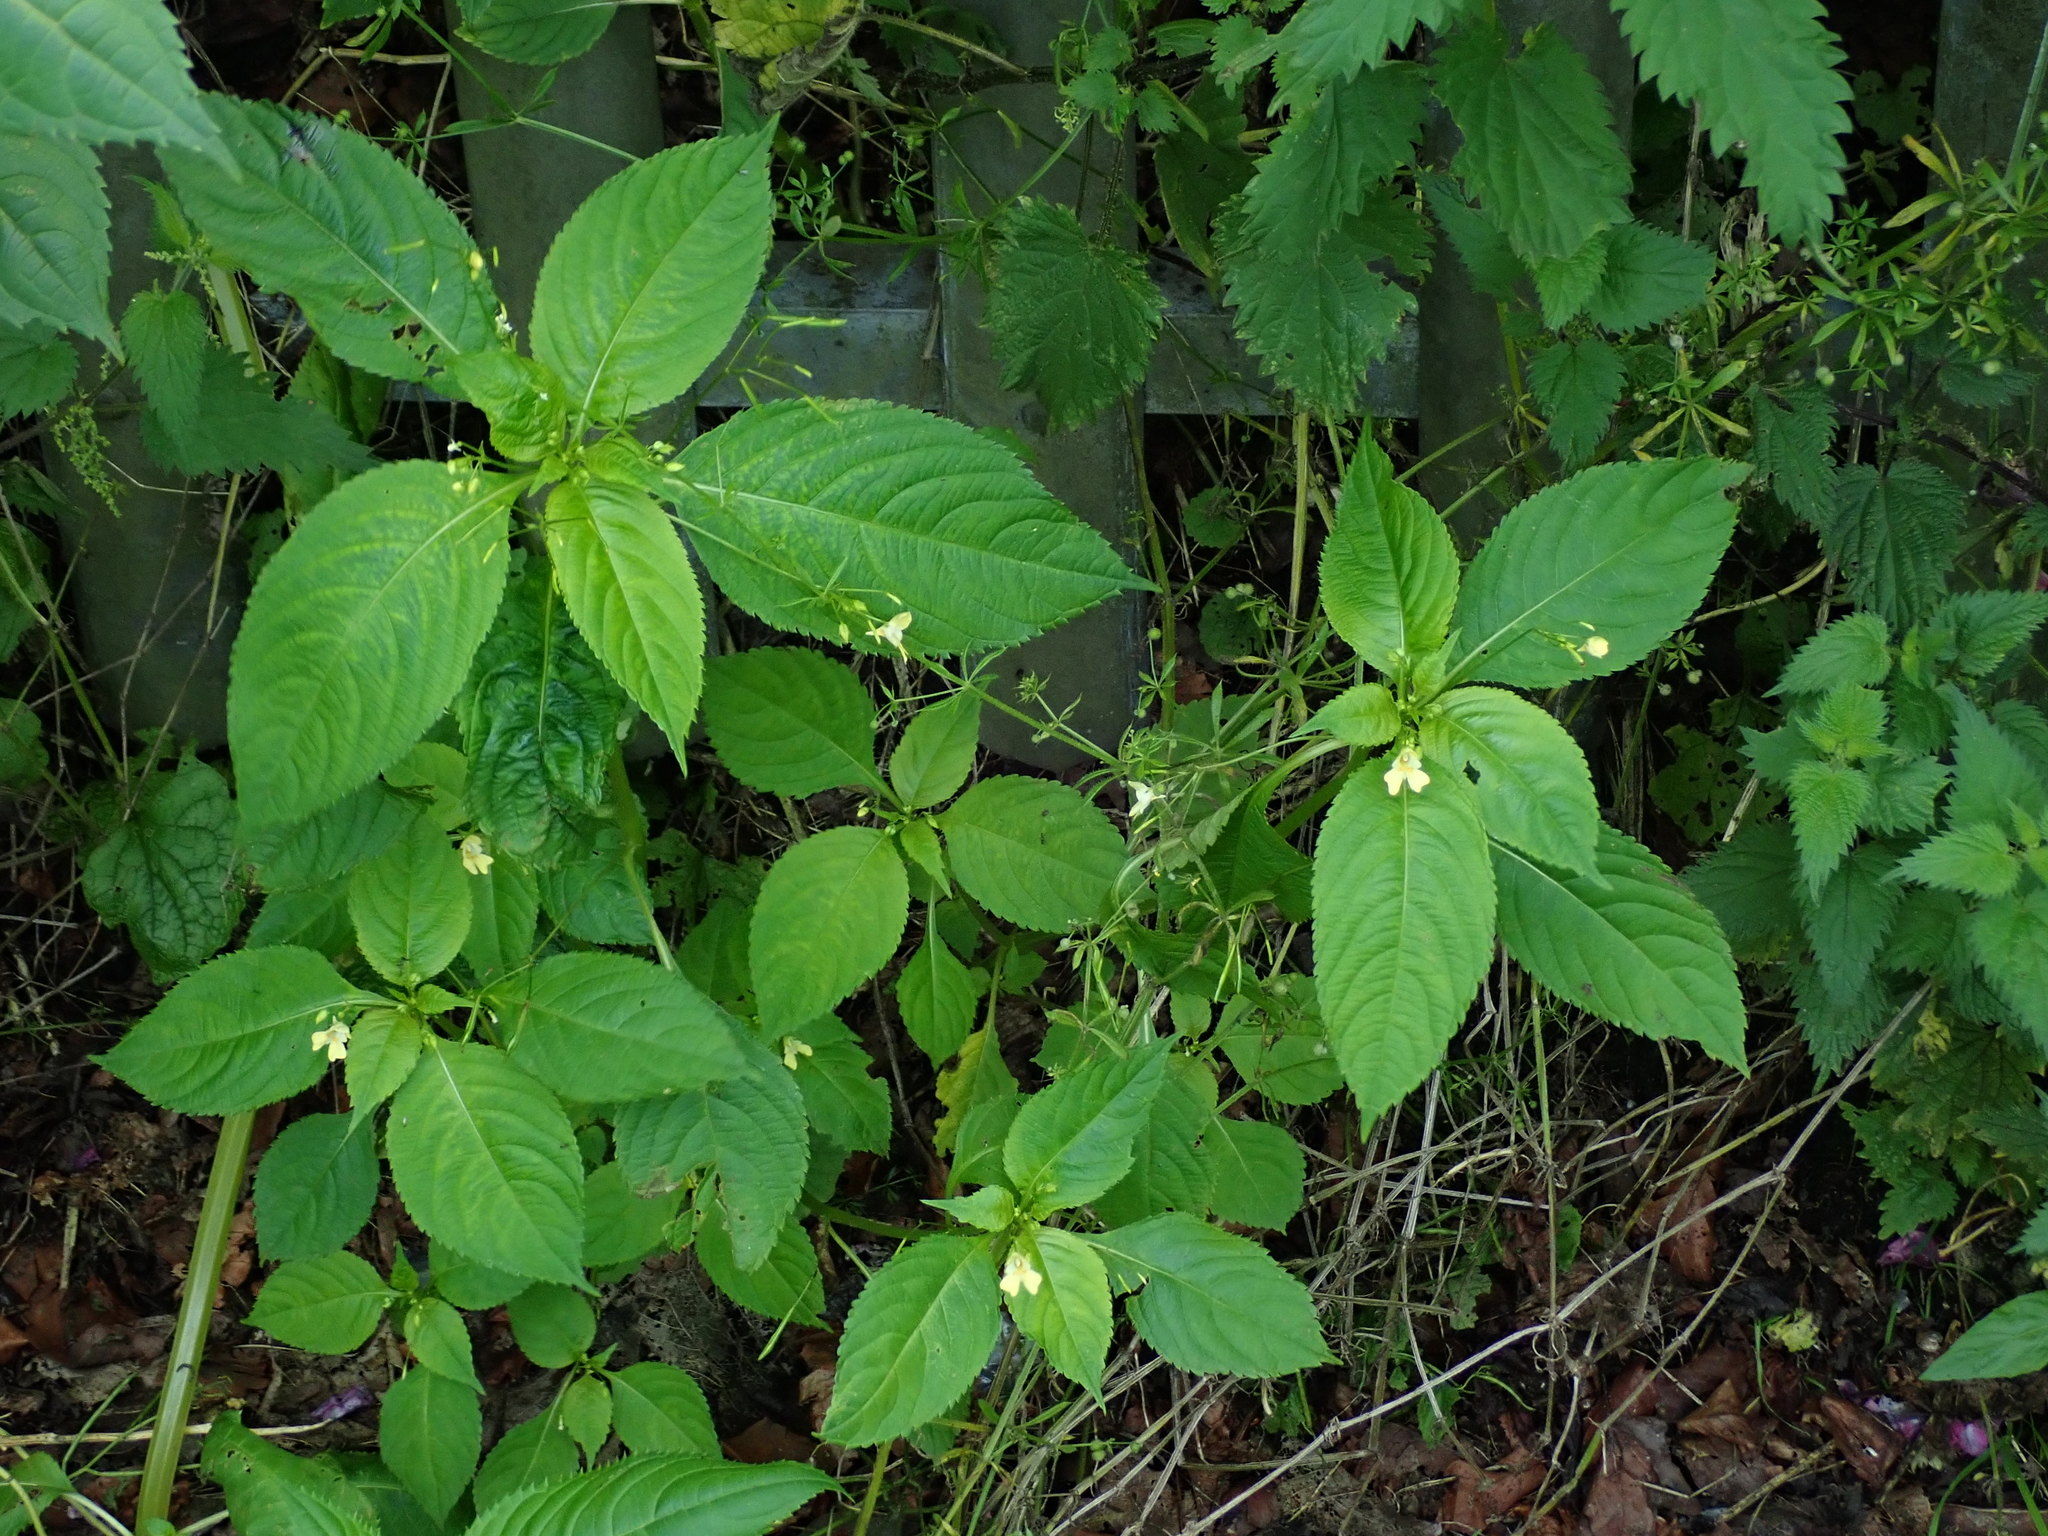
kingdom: Plantae
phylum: Tracheophyta
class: Magnoliopsida
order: Ericales
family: Balsaminaceae
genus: Impatiens
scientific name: Impatiens parviflora
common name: Small balsam
